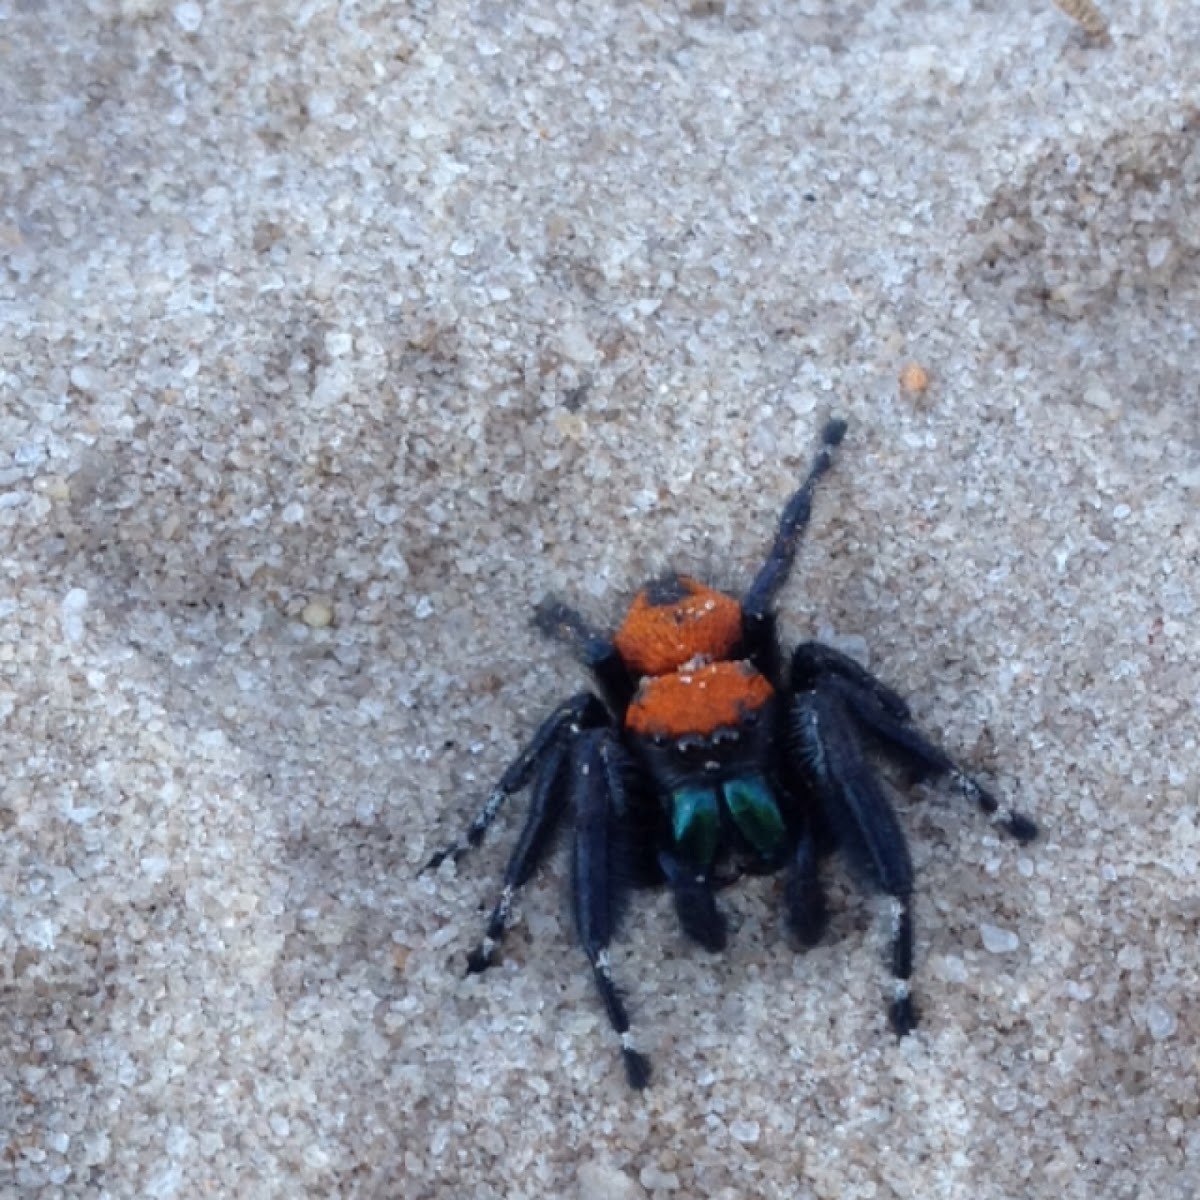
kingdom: Animalia
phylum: Arthropoda
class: Arachnida
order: Araneae
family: Salticidae
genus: Phidippus
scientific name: Phidippus apacheanus
